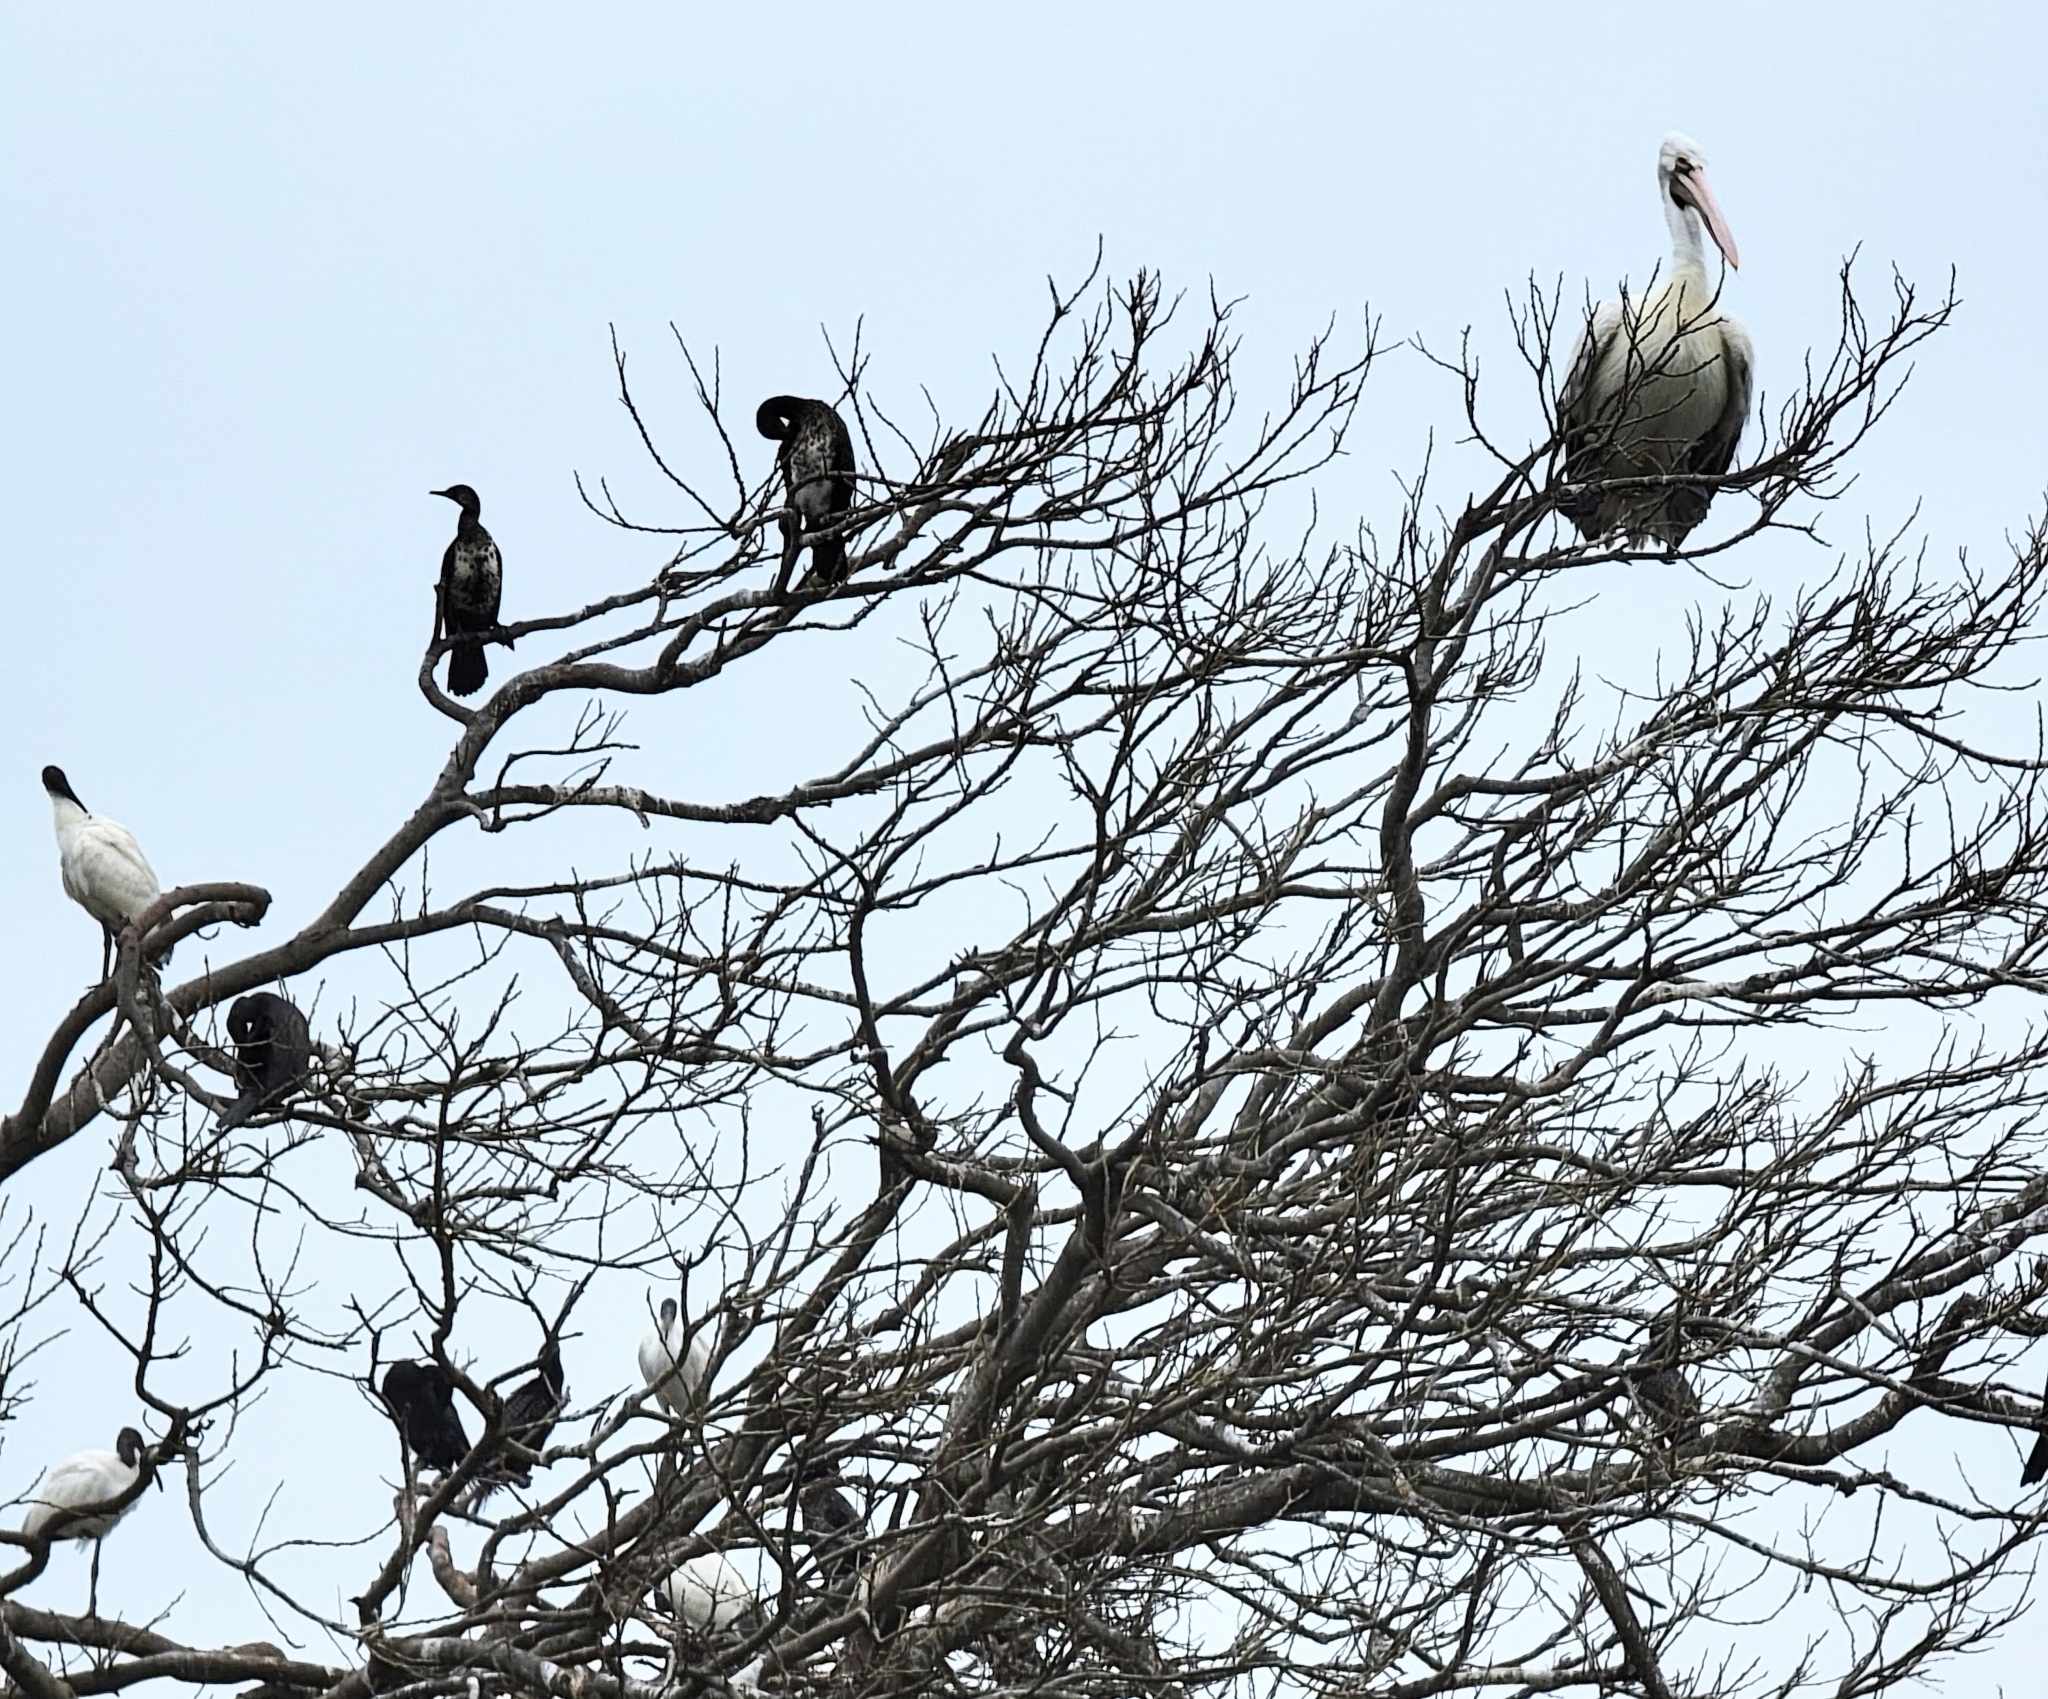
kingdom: Animalia
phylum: Chordata
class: Aves
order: Suliformes
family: Phalacrocoracidae
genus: Phalacrocorax
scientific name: Phalacrocorax fuscicollis
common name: Indian cormorant
